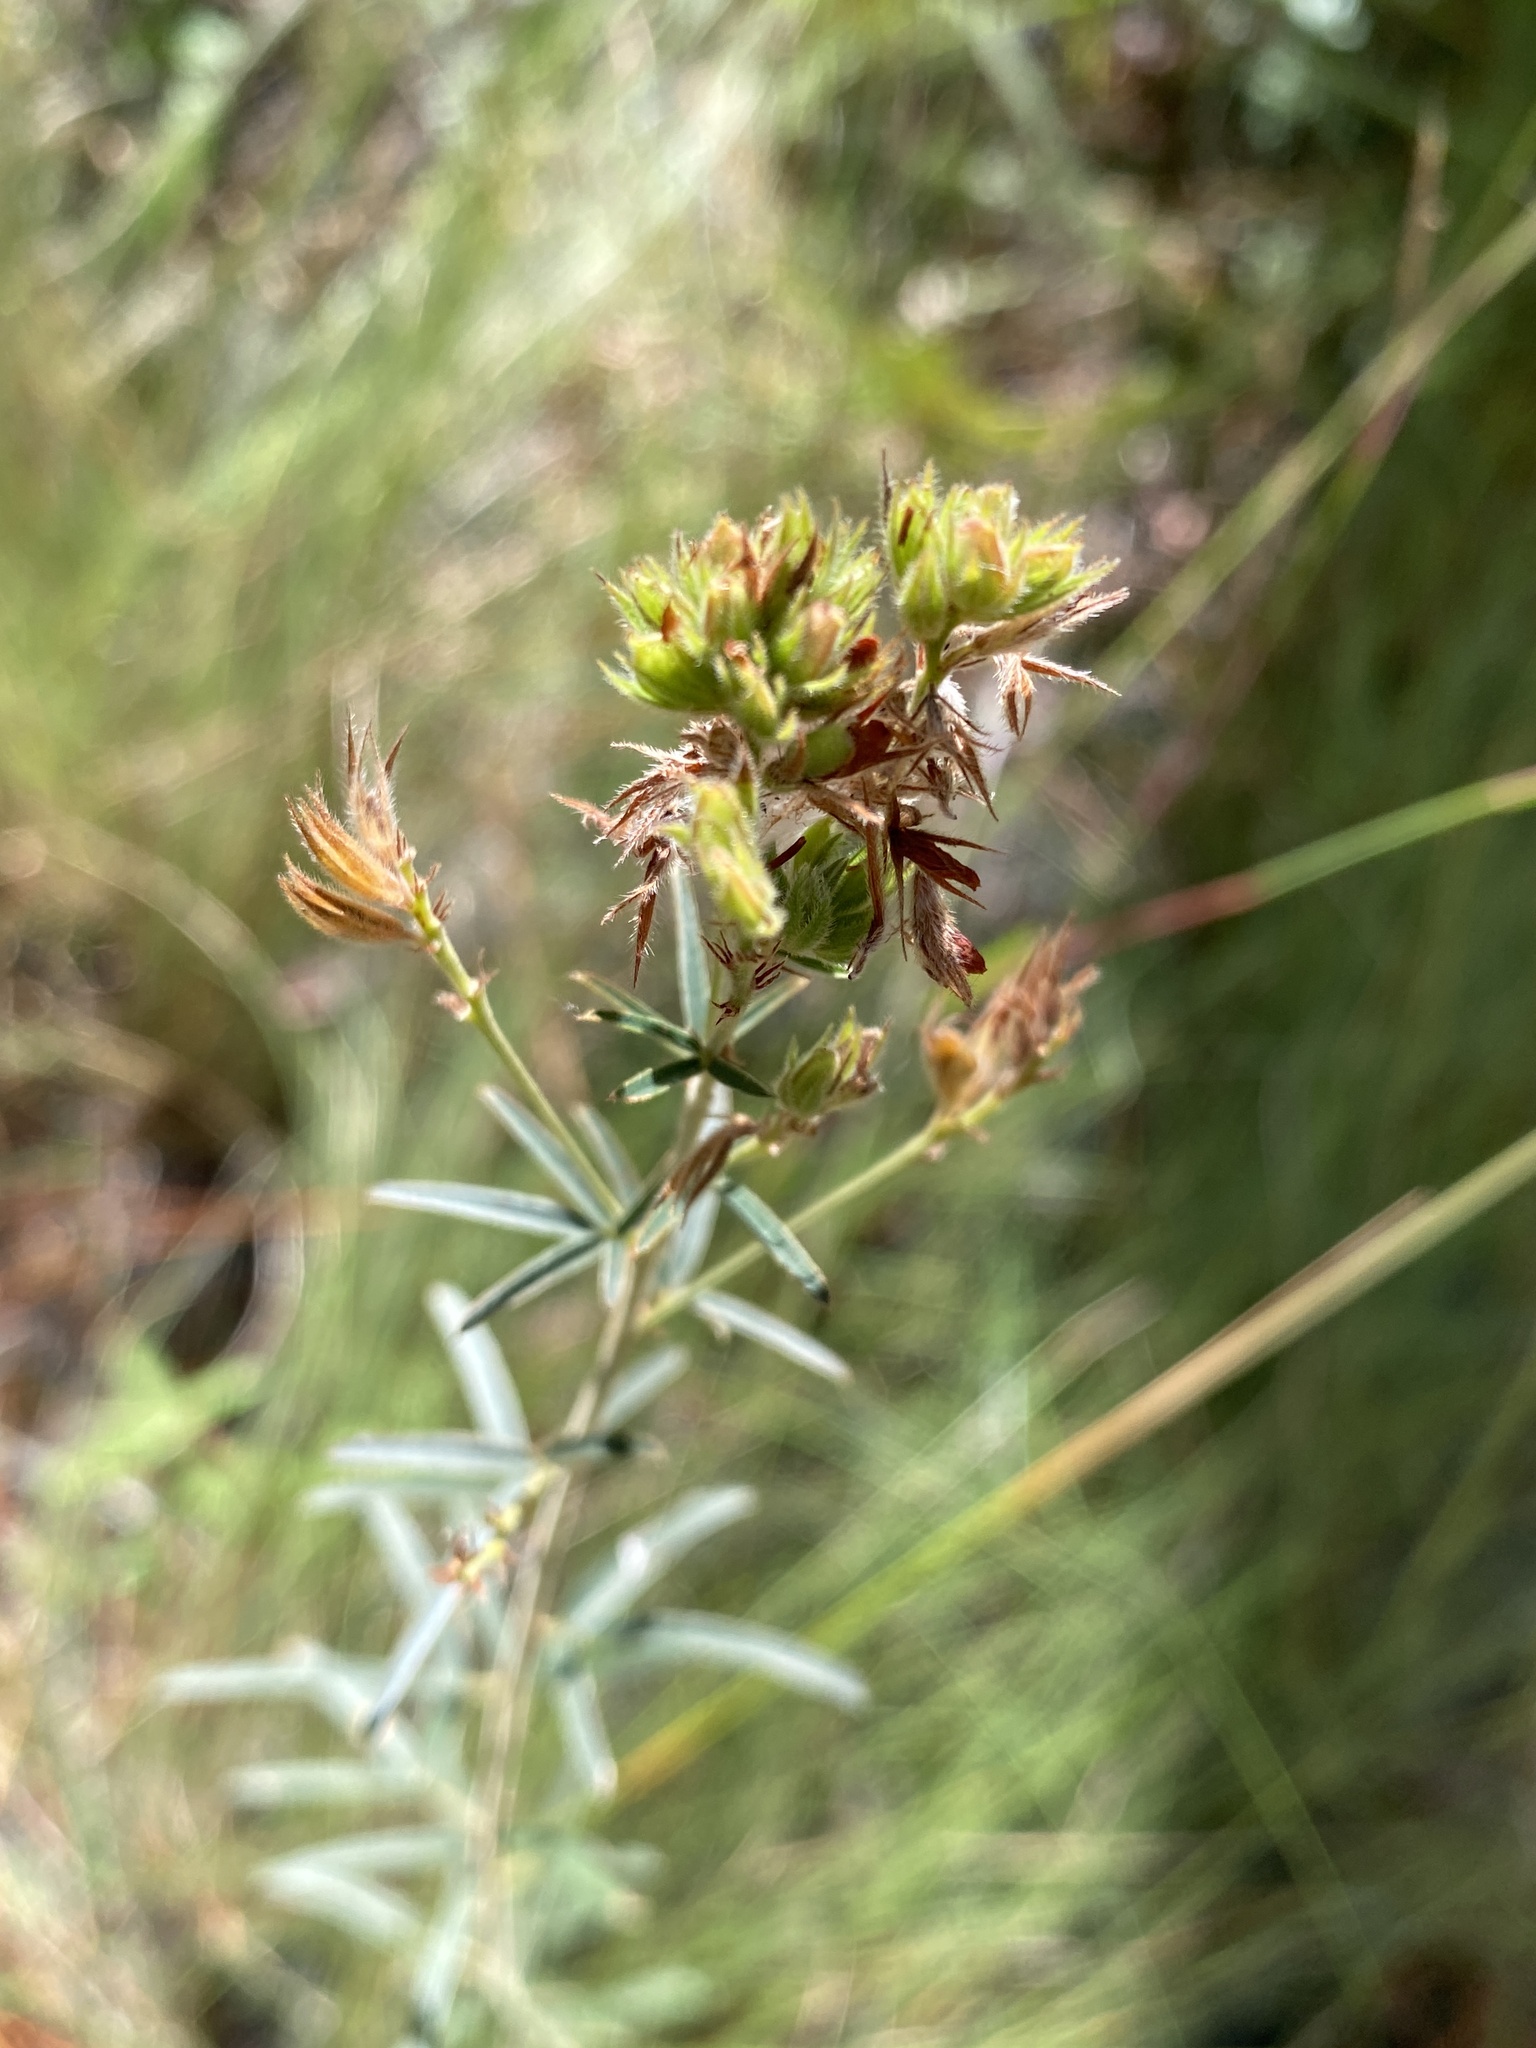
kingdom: Plantae
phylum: Tracheophyta
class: Magnoliopsida
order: Fabales
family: Fabaceae
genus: Lespedeza
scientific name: Lespedeza angustifolia
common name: Narrow-leaf bush-clover
